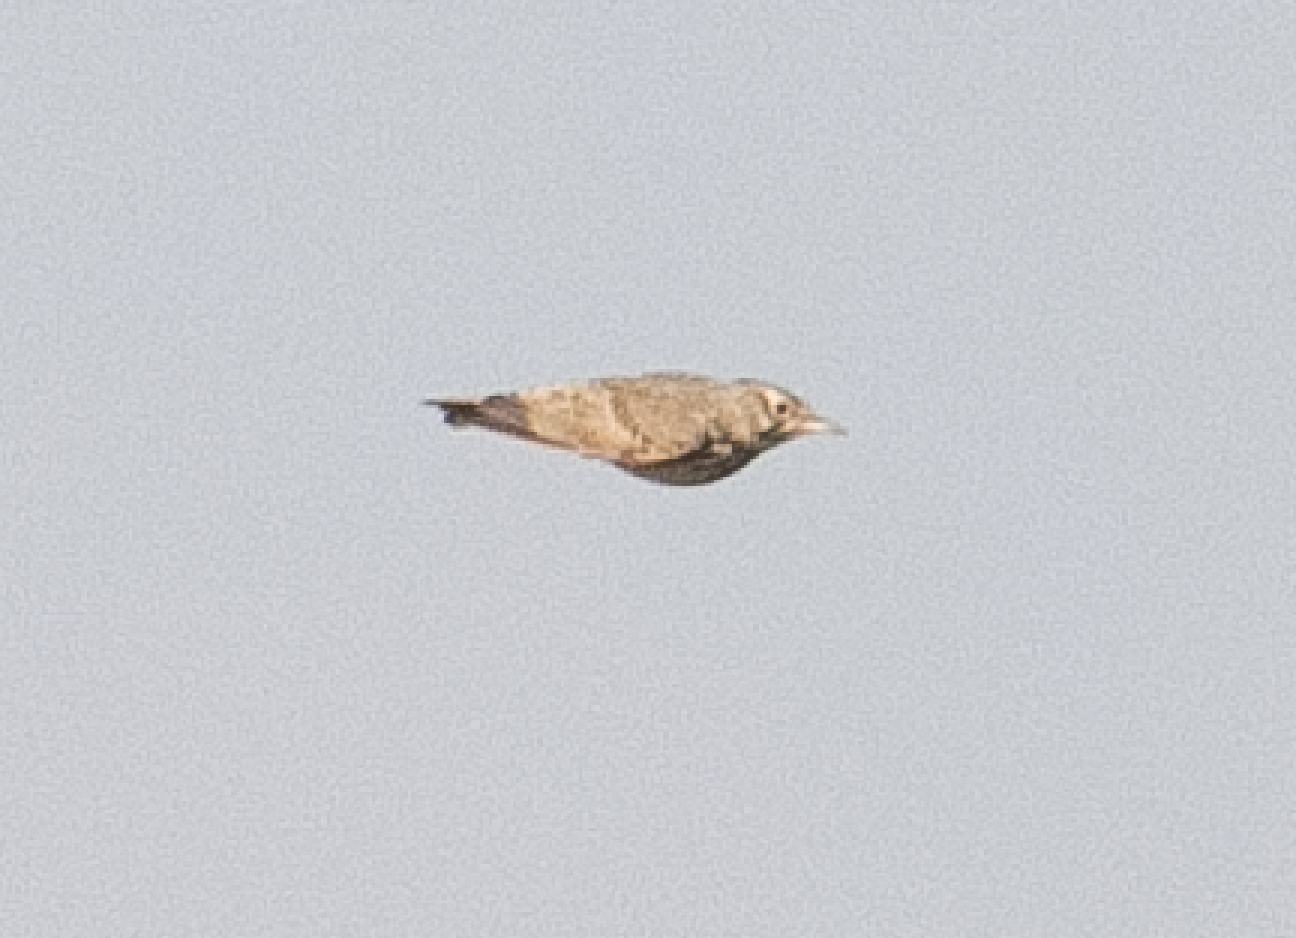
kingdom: Animalia
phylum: Chordata
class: Aves
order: Passeriformes
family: Alaudidae
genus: Galerida
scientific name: Galerida cristata
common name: Crested lark
